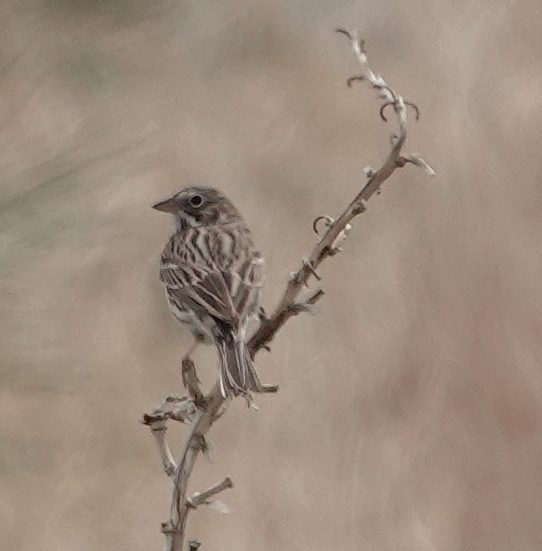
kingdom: Animalia
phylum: Chordata
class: Aves
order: Passeriformes
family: Passerellidae
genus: Pooecetes
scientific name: Pooecetes gramineus
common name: Vesper sparrow
